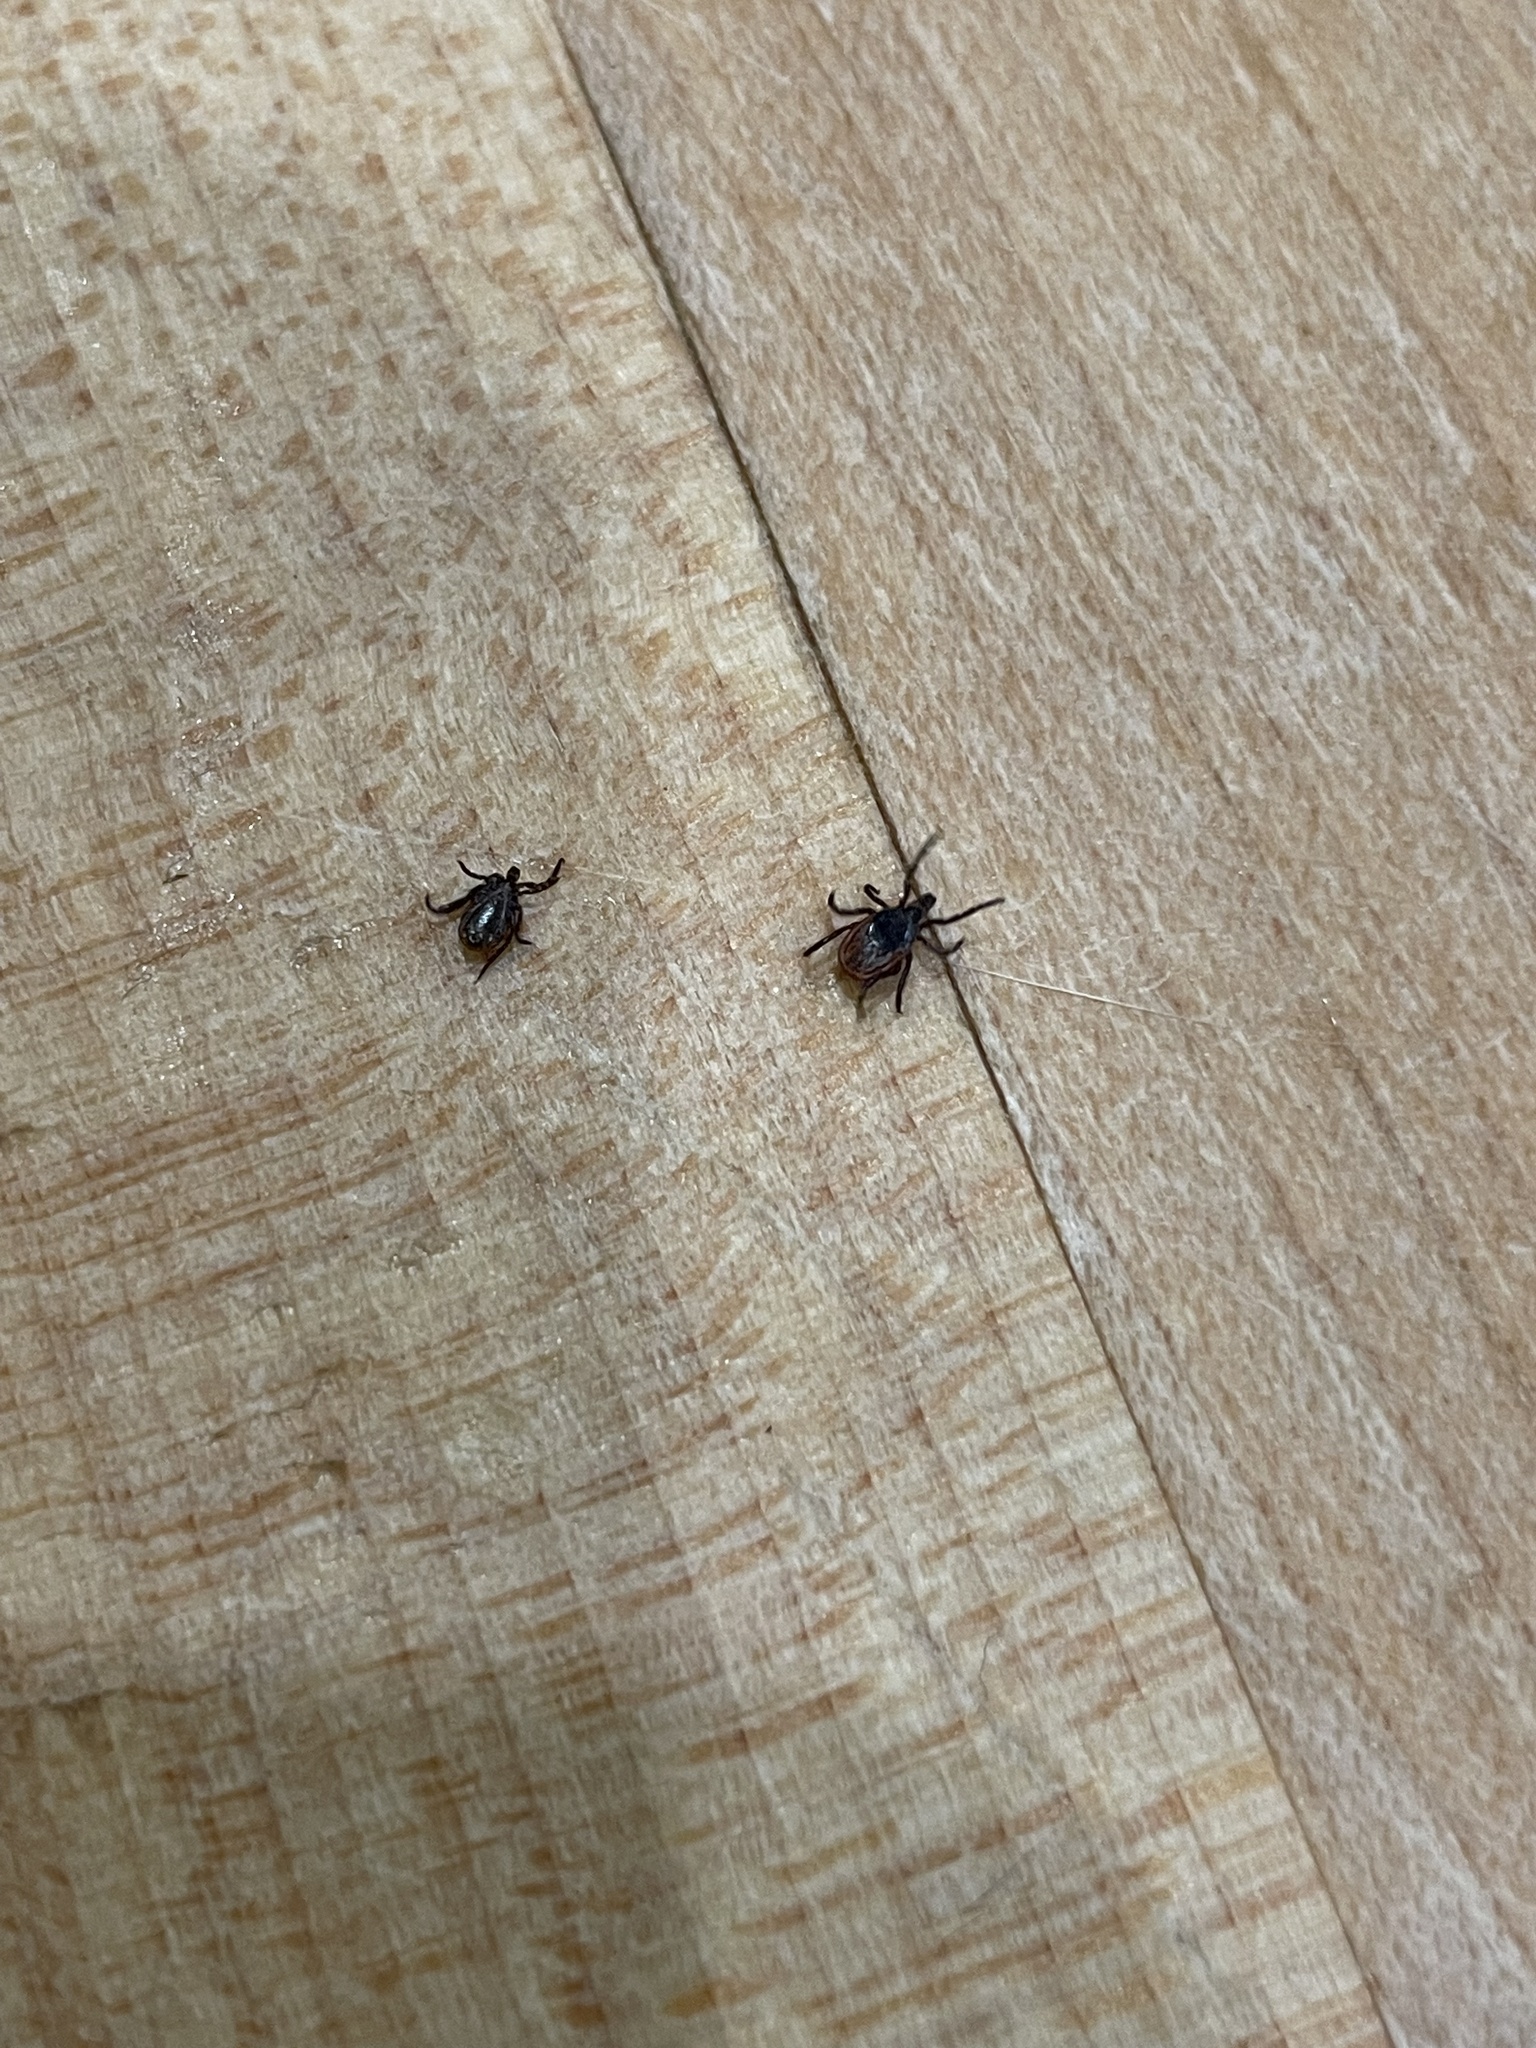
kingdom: Animalia
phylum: Arthropoda
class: Arachnida
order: Ixodida
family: Ixodidae
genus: Ixodes
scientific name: Ixodes scapularis
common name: Black legged tick
